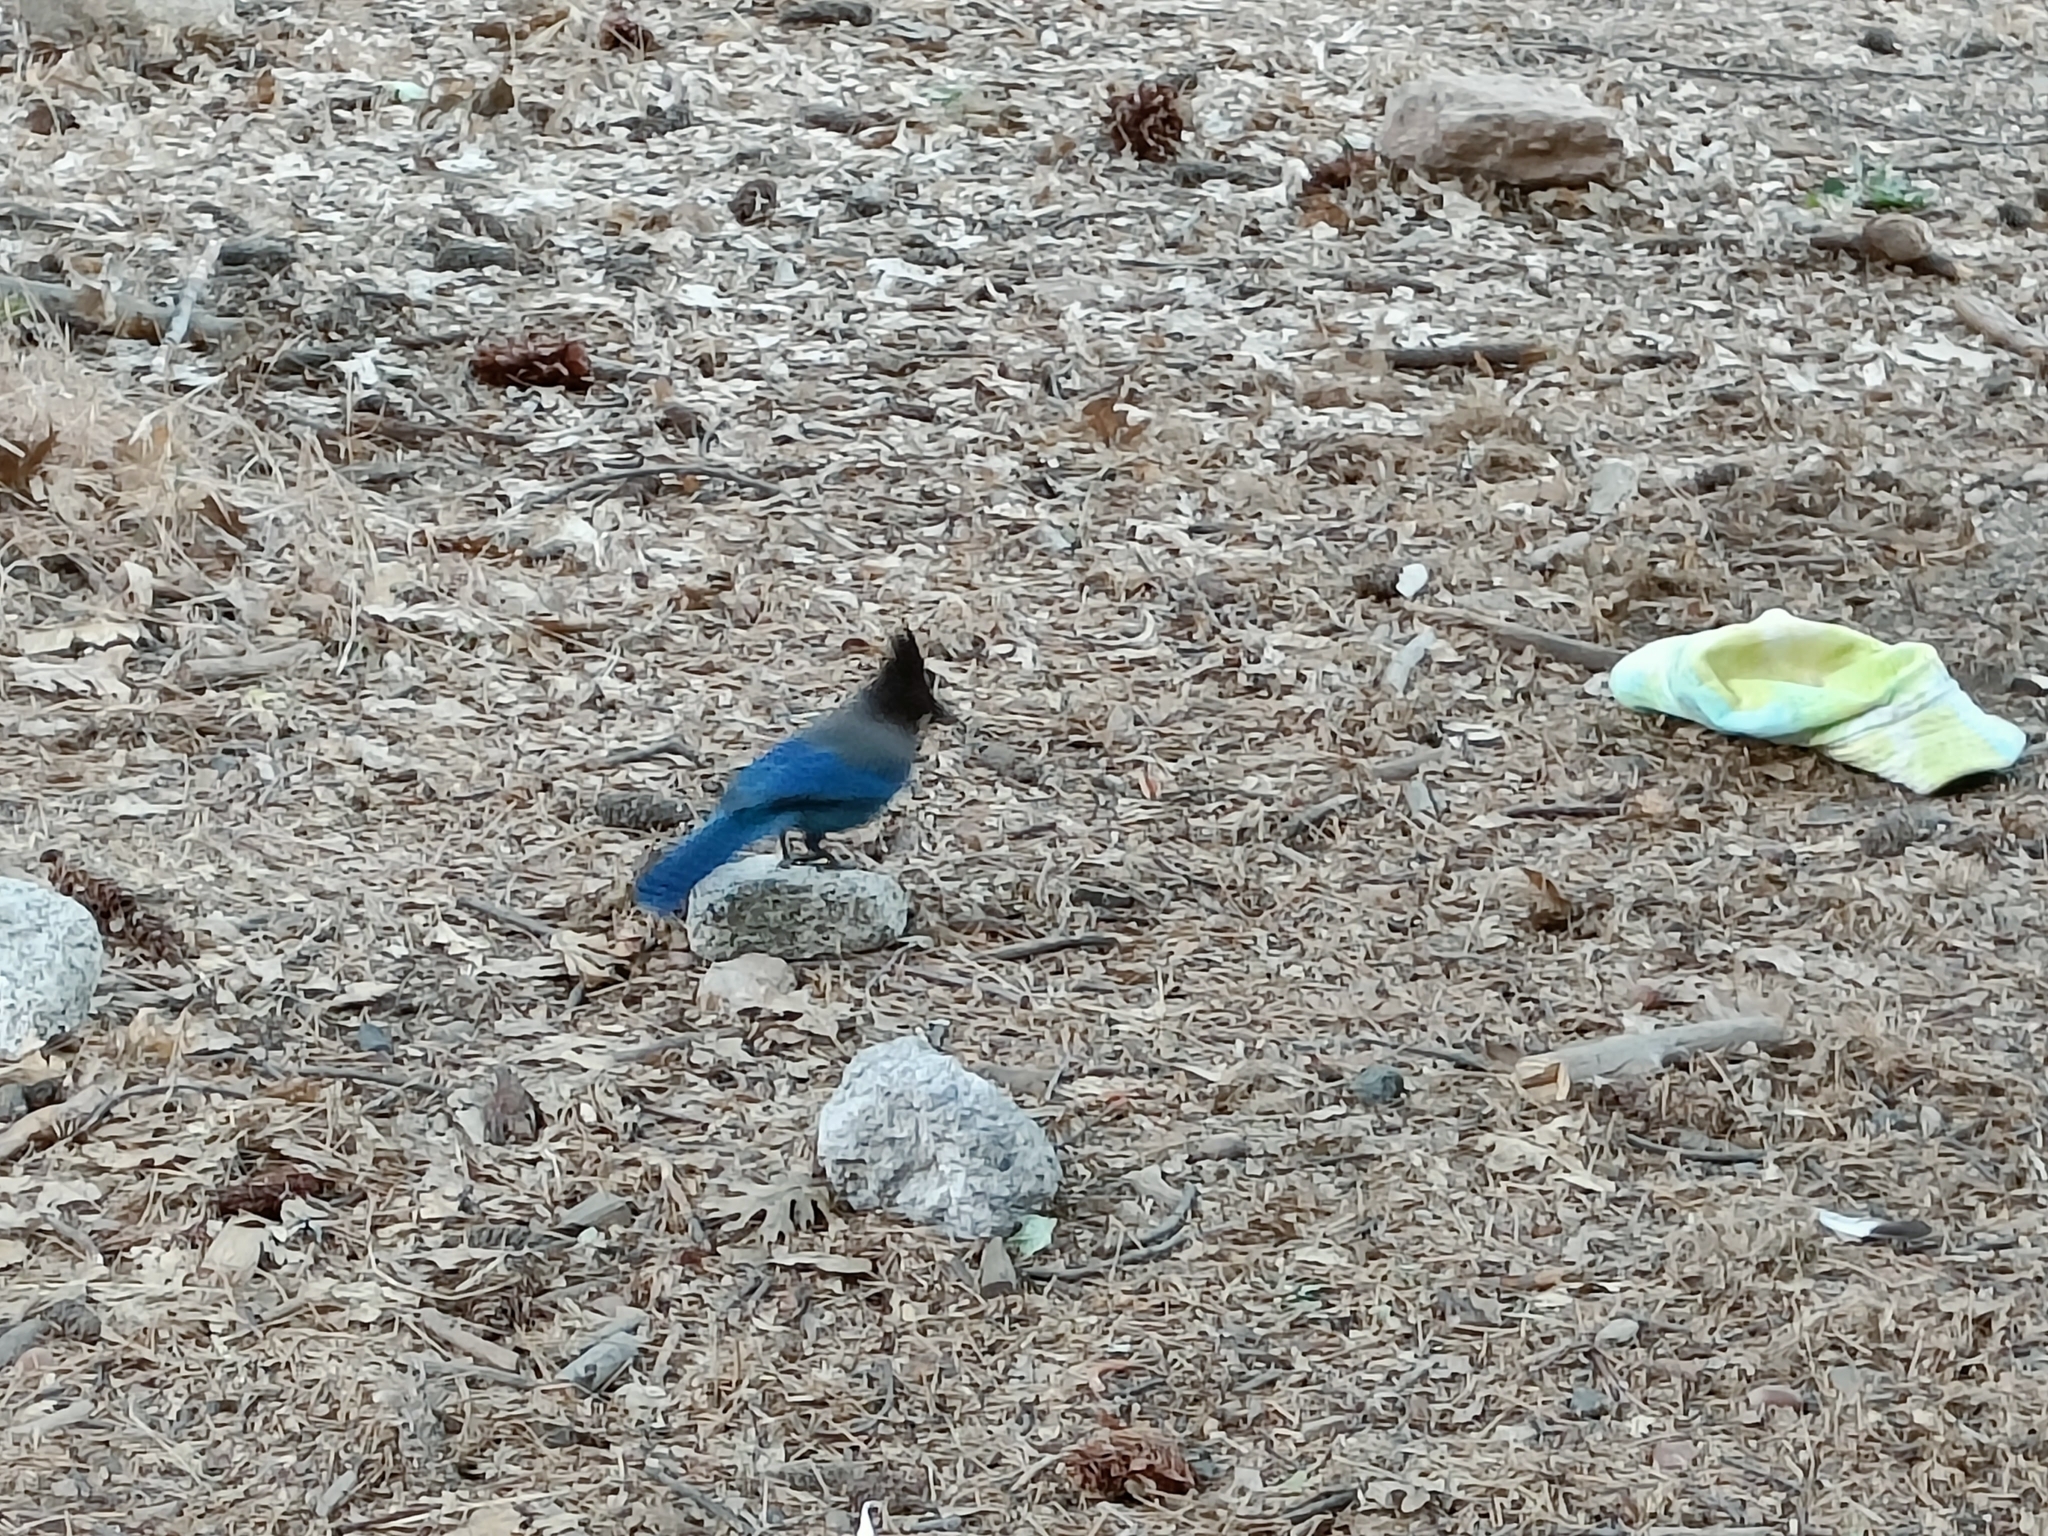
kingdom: Animalia
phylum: Chordata
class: Aves
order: Passeriformes
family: Corvidae
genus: Cyanocitta
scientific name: Cyanocitta stelleri
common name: Steller's jay
